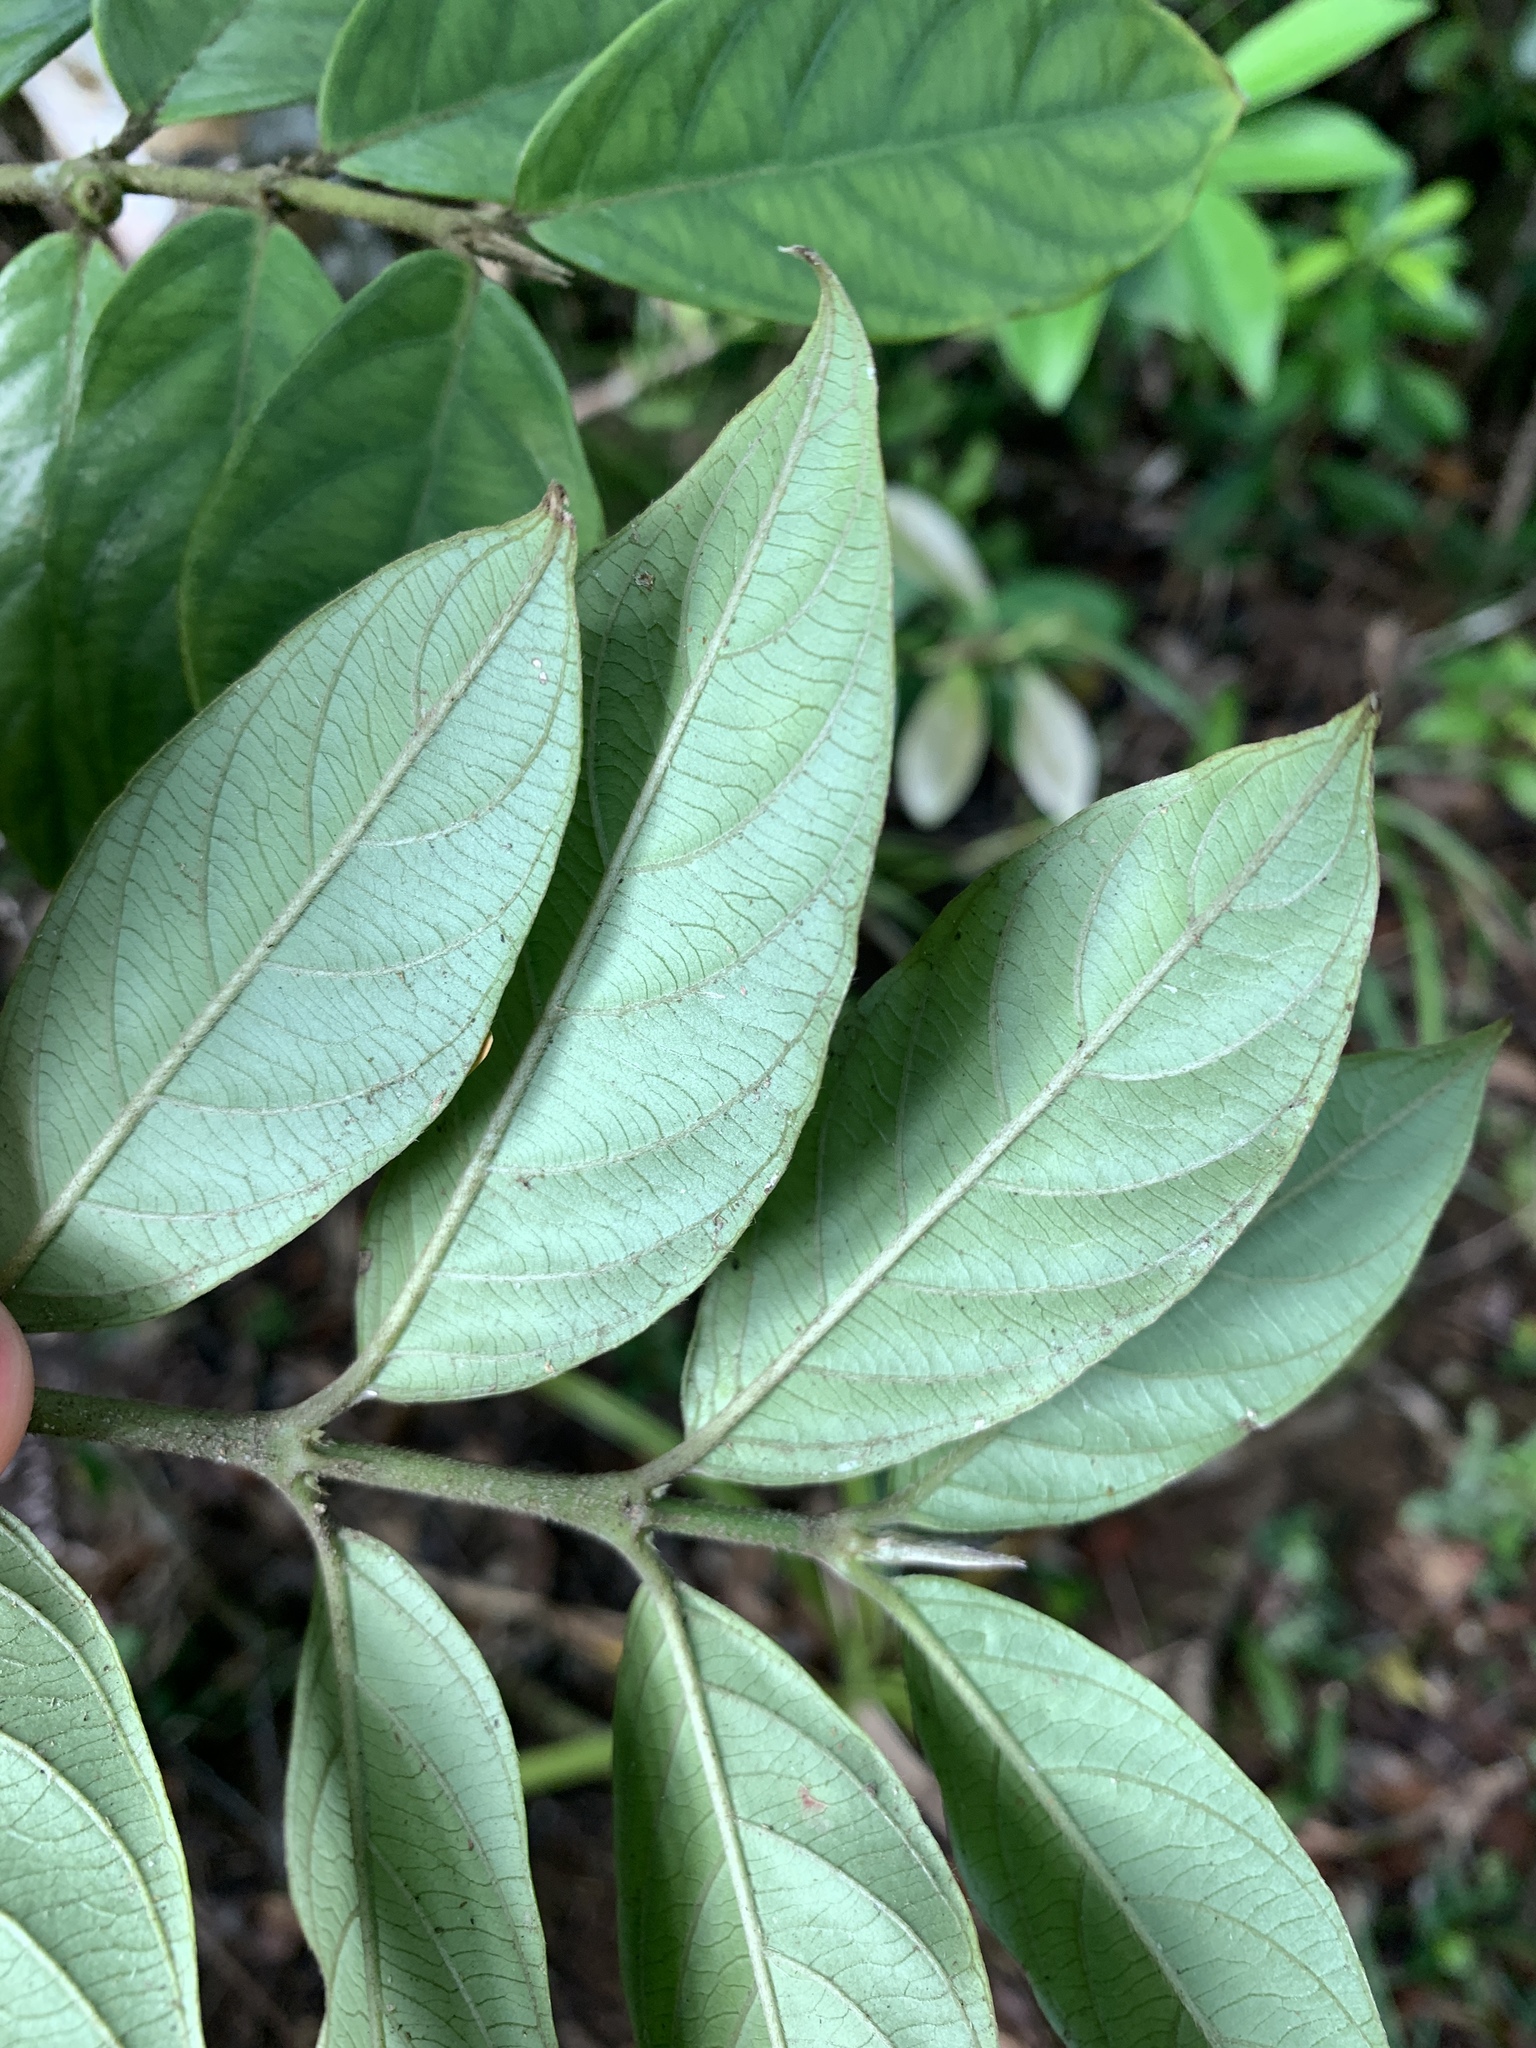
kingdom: Plantae
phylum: Tracheophyta
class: Magnoliopsida
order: Gentianales
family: Rubiaceae
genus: Lasianthus
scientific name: Lasianthus simizui
